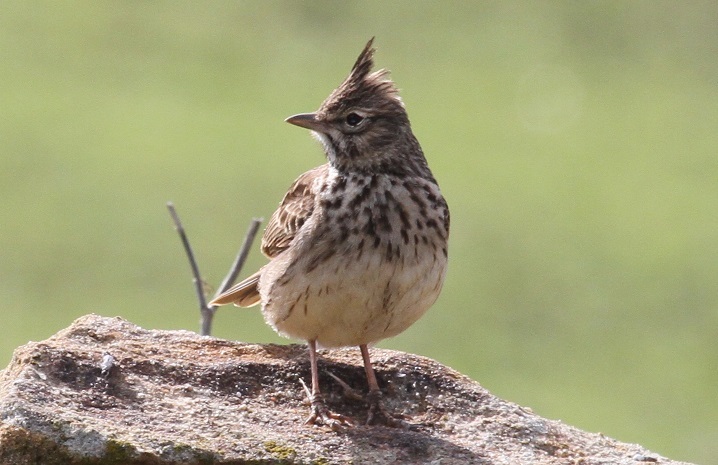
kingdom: Animalia
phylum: Chordata
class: Aves
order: Passeriformes
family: Alaudidae
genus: Galerida
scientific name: Galerida theklae
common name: Thekla lark
